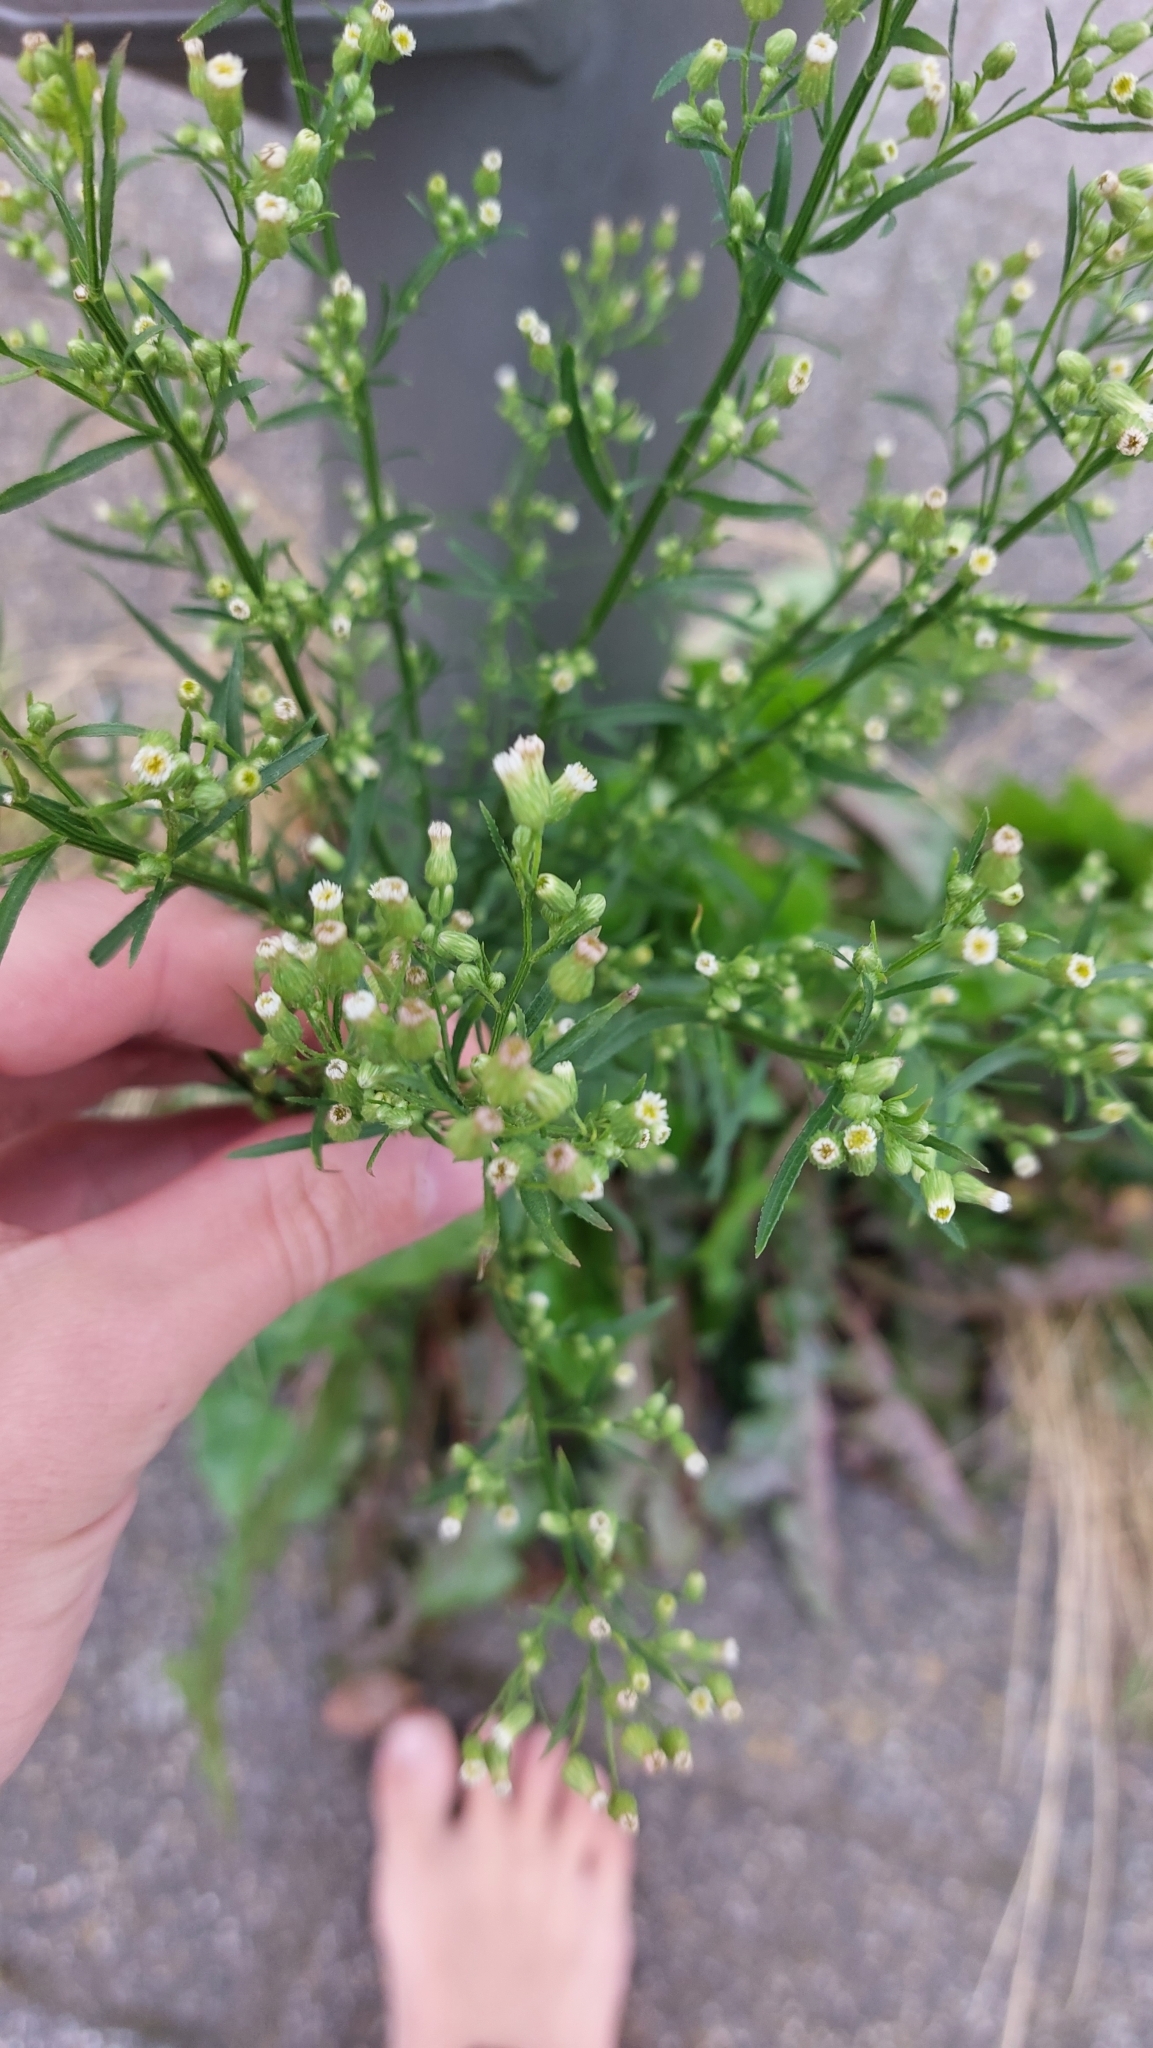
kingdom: Plantae
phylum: Tracheophyta
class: Magnoliopsida
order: Asterales
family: Asteraceae
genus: Erigeron
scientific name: Erigeron canadensis
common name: Canadian fleabane
